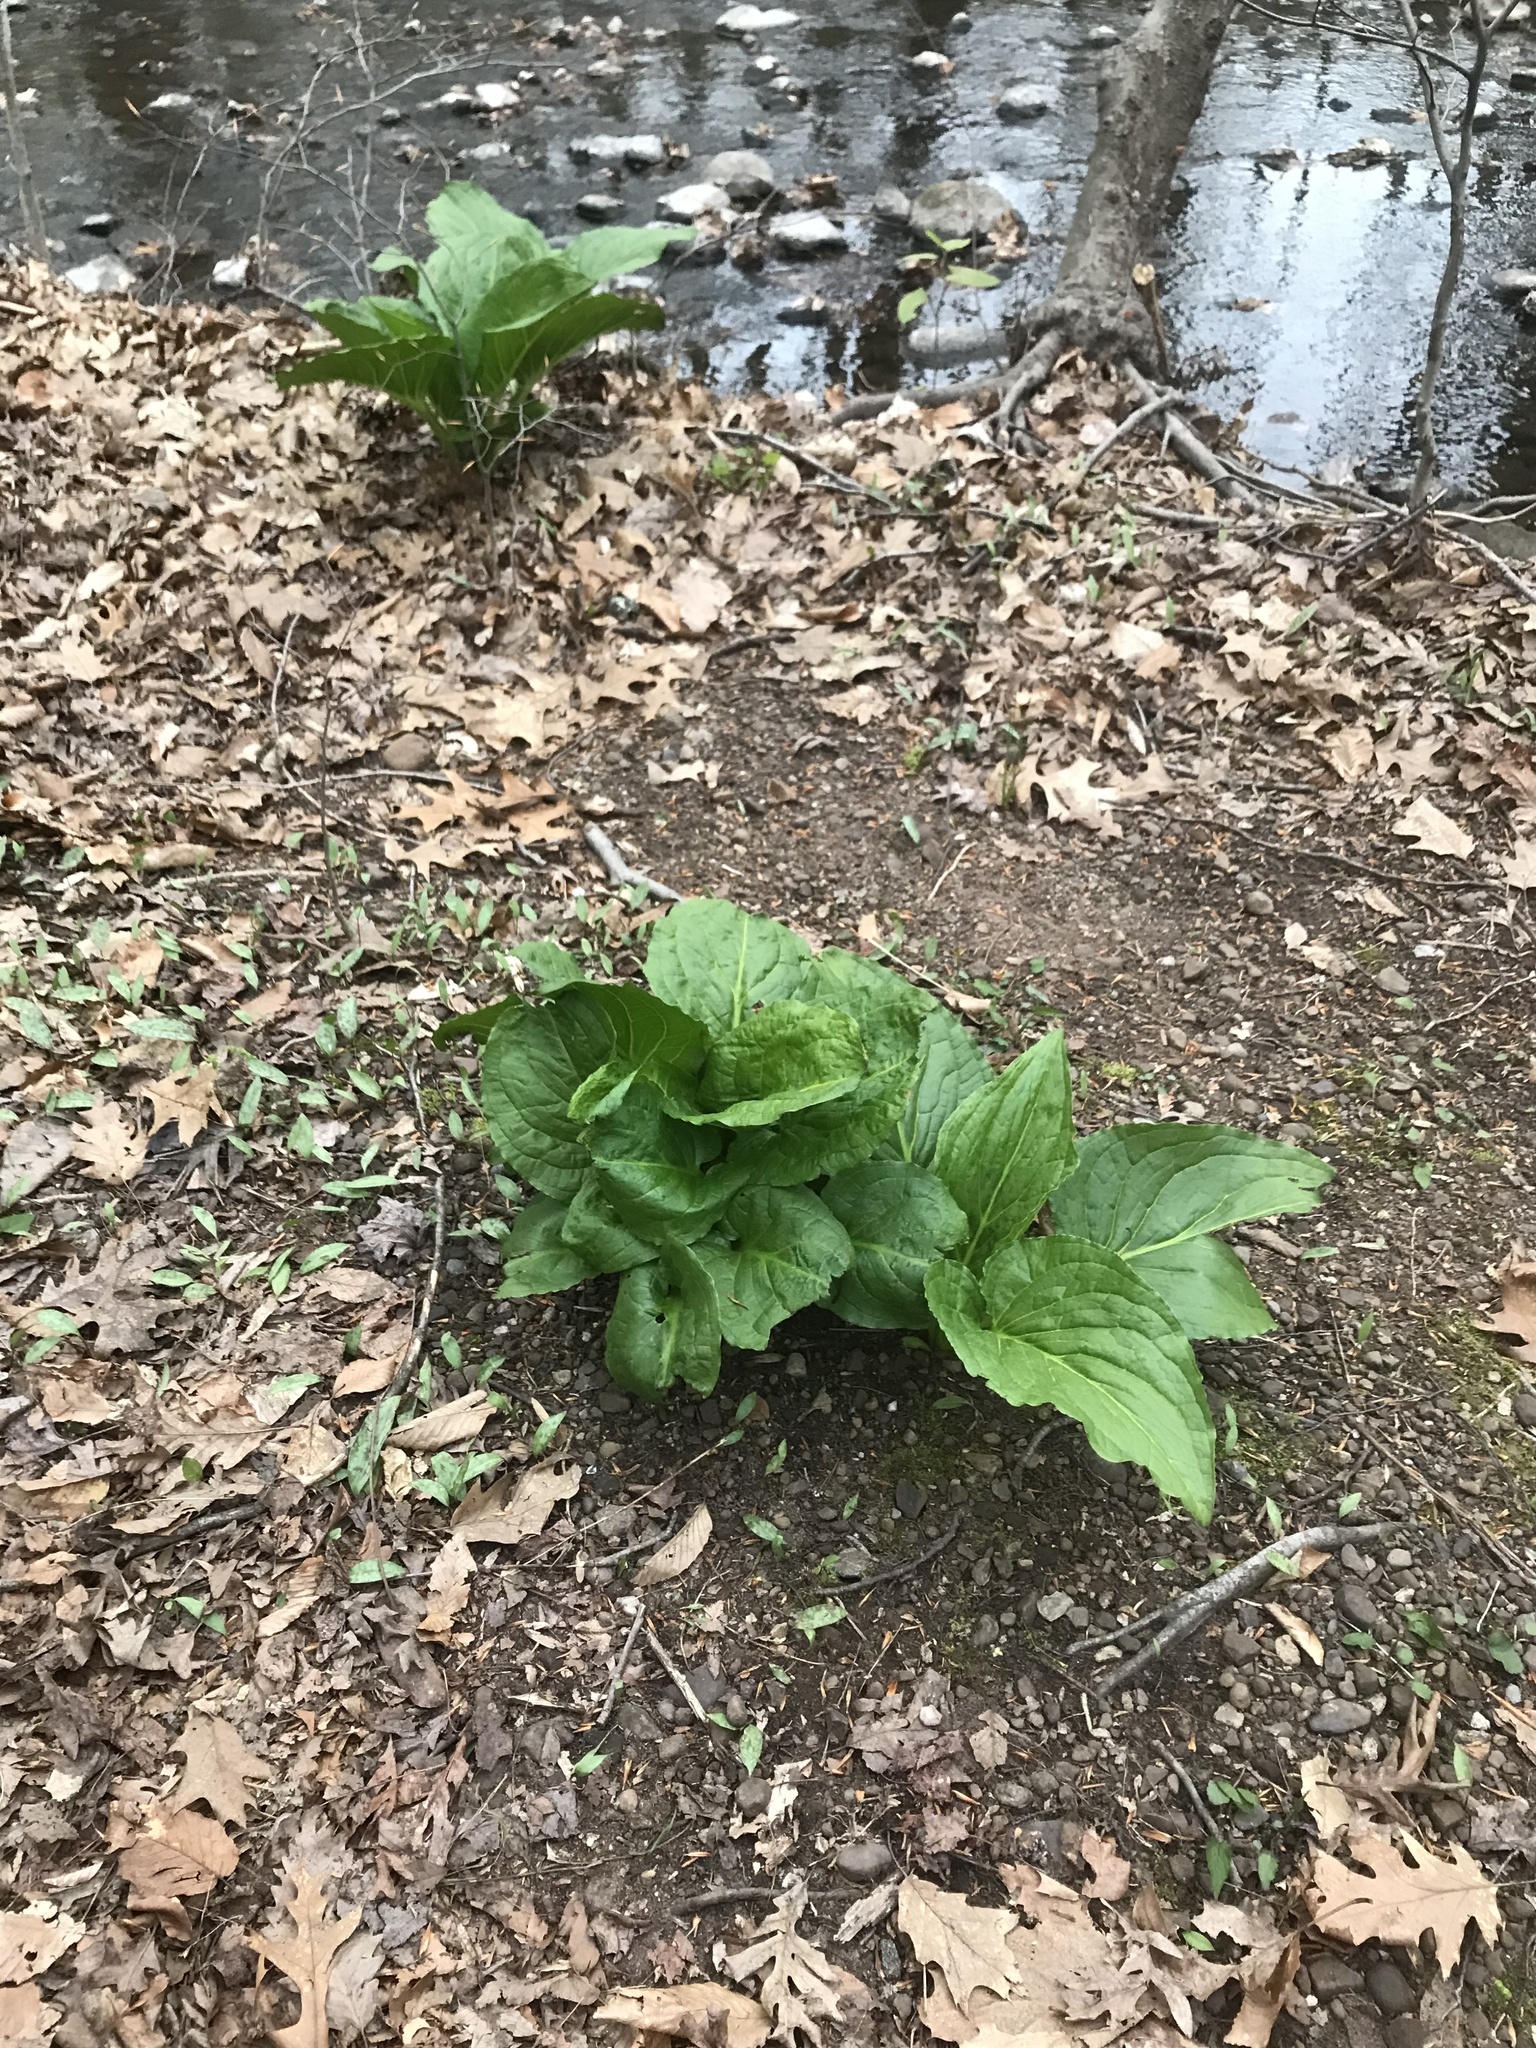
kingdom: Plantae
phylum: Tracheophyta
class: Liliopsida
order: Alismatales
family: Araceae
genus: Symplocarpus
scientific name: Symplocarpus foetidus
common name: Eastern skunk cabbage
